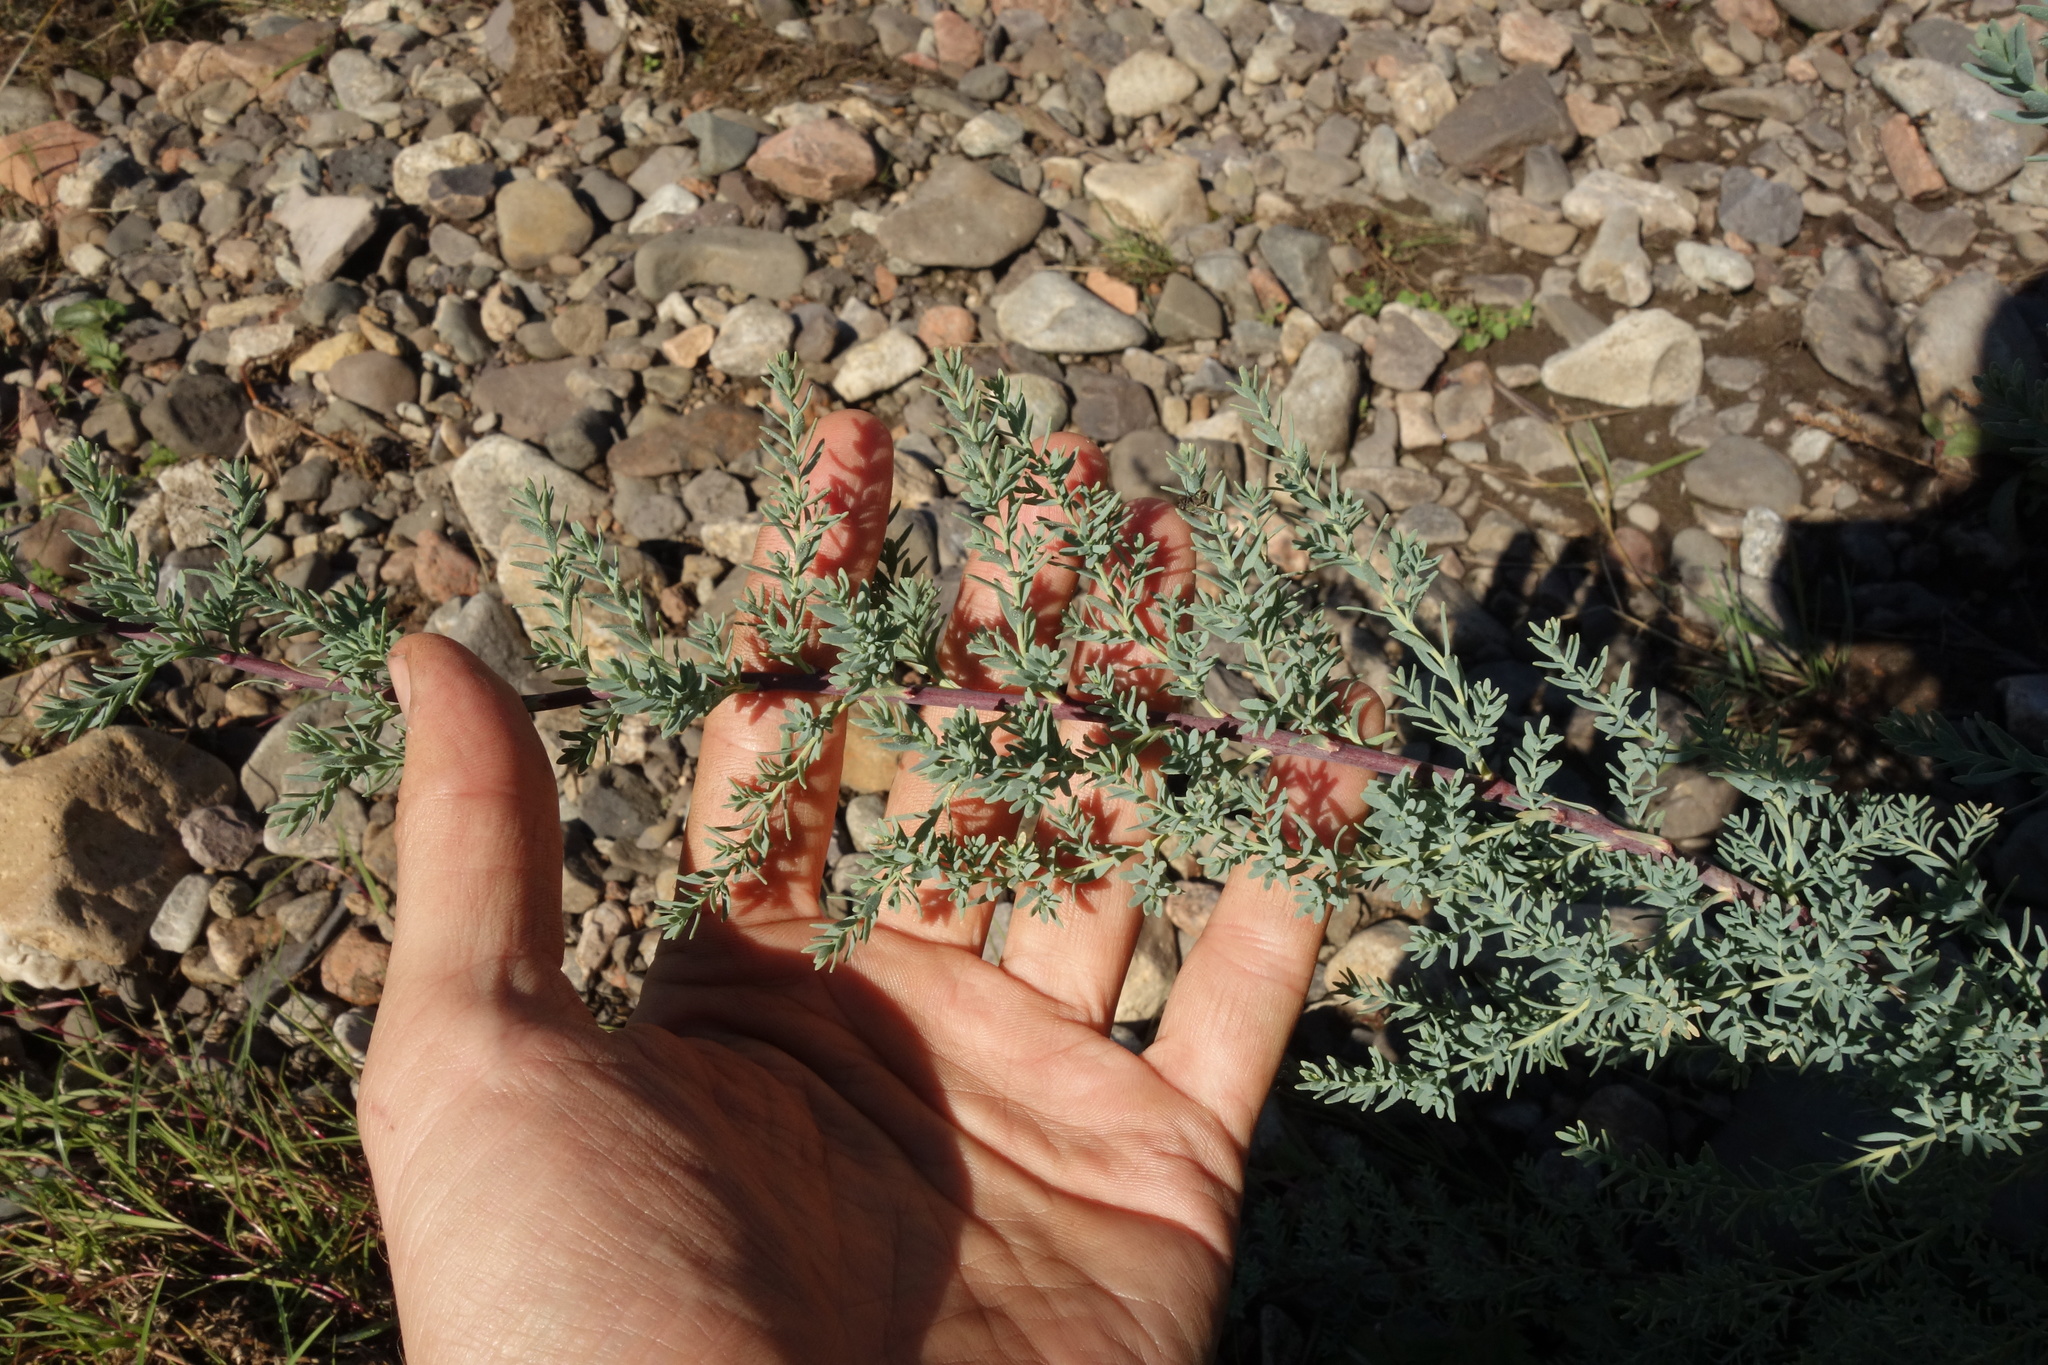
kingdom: Plantae
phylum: Tracheophyta
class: Magnoliopsida
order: Caryophyllales
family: Tamaricaceae
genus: Myricaria
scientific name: Myricaria longifolia
